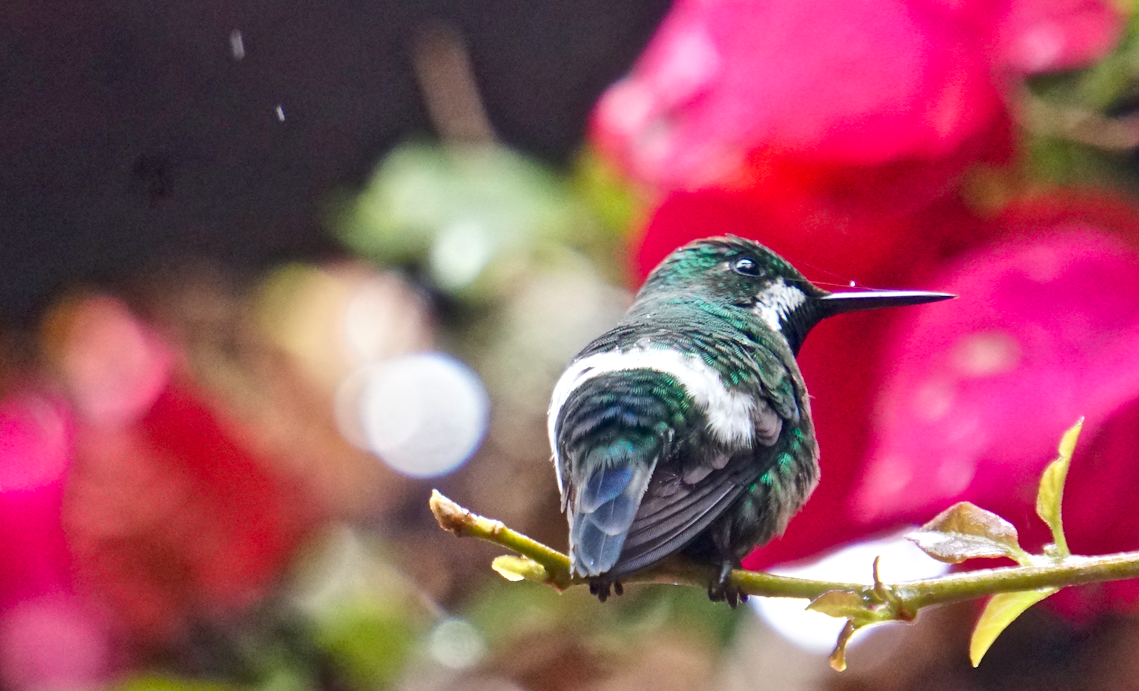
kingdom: Animalia
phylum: Chordata
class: Aves
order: Apodiformes
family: Trochilidae
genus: Discosura
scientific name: Discosura conversii
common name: Green thorntail
